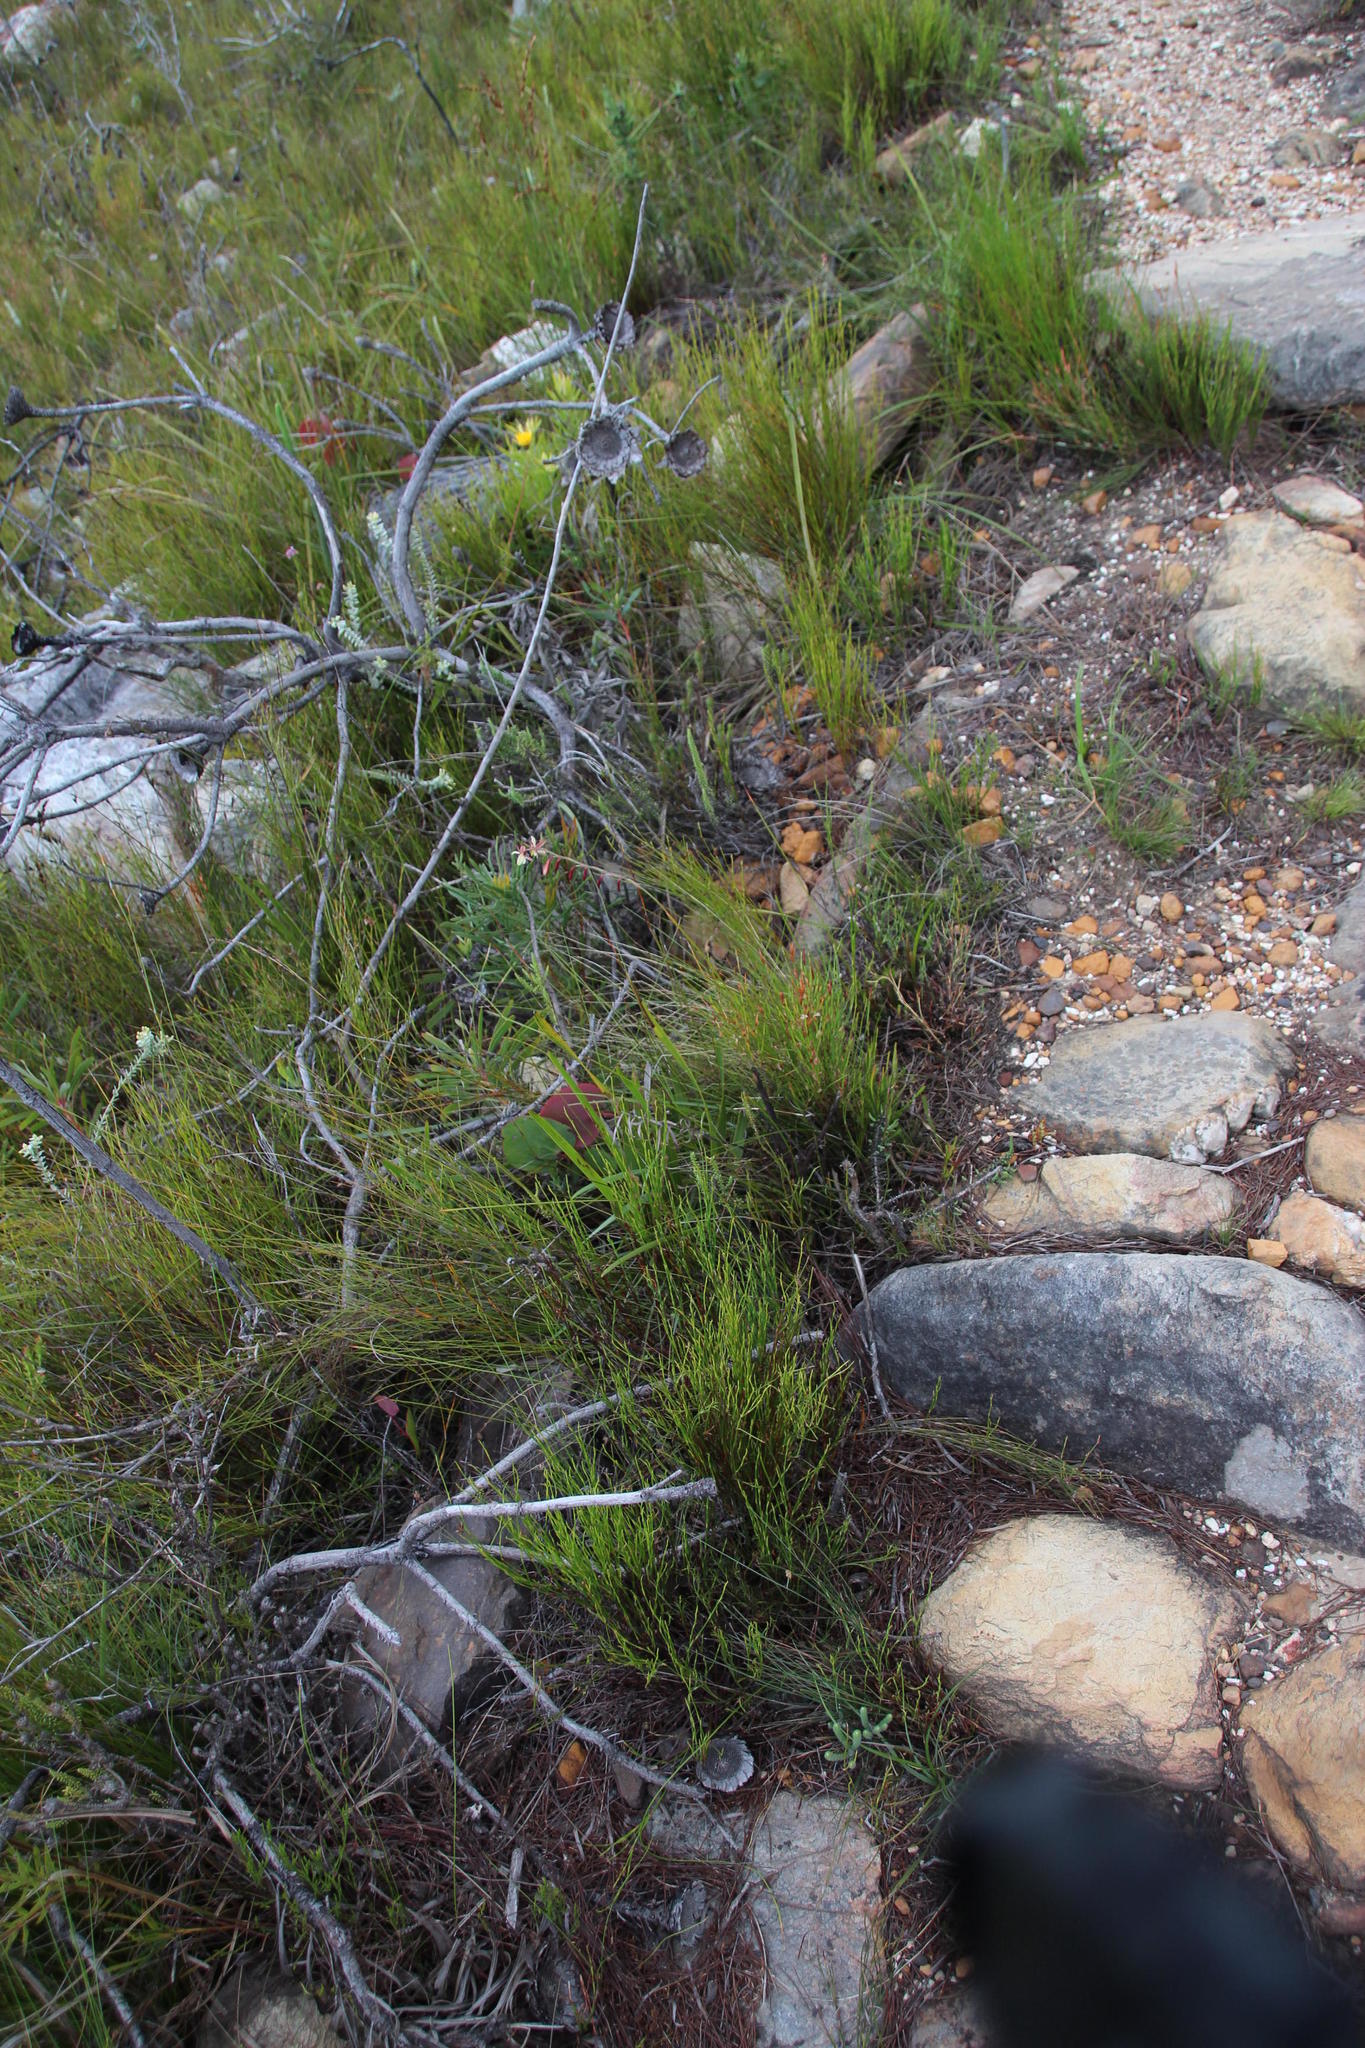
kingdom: Plantae
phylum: Tracheophyta
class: Liliopsida
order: Asparagales
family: Iridaceae
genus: Hesperantha
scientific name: Hesperantha radiata
